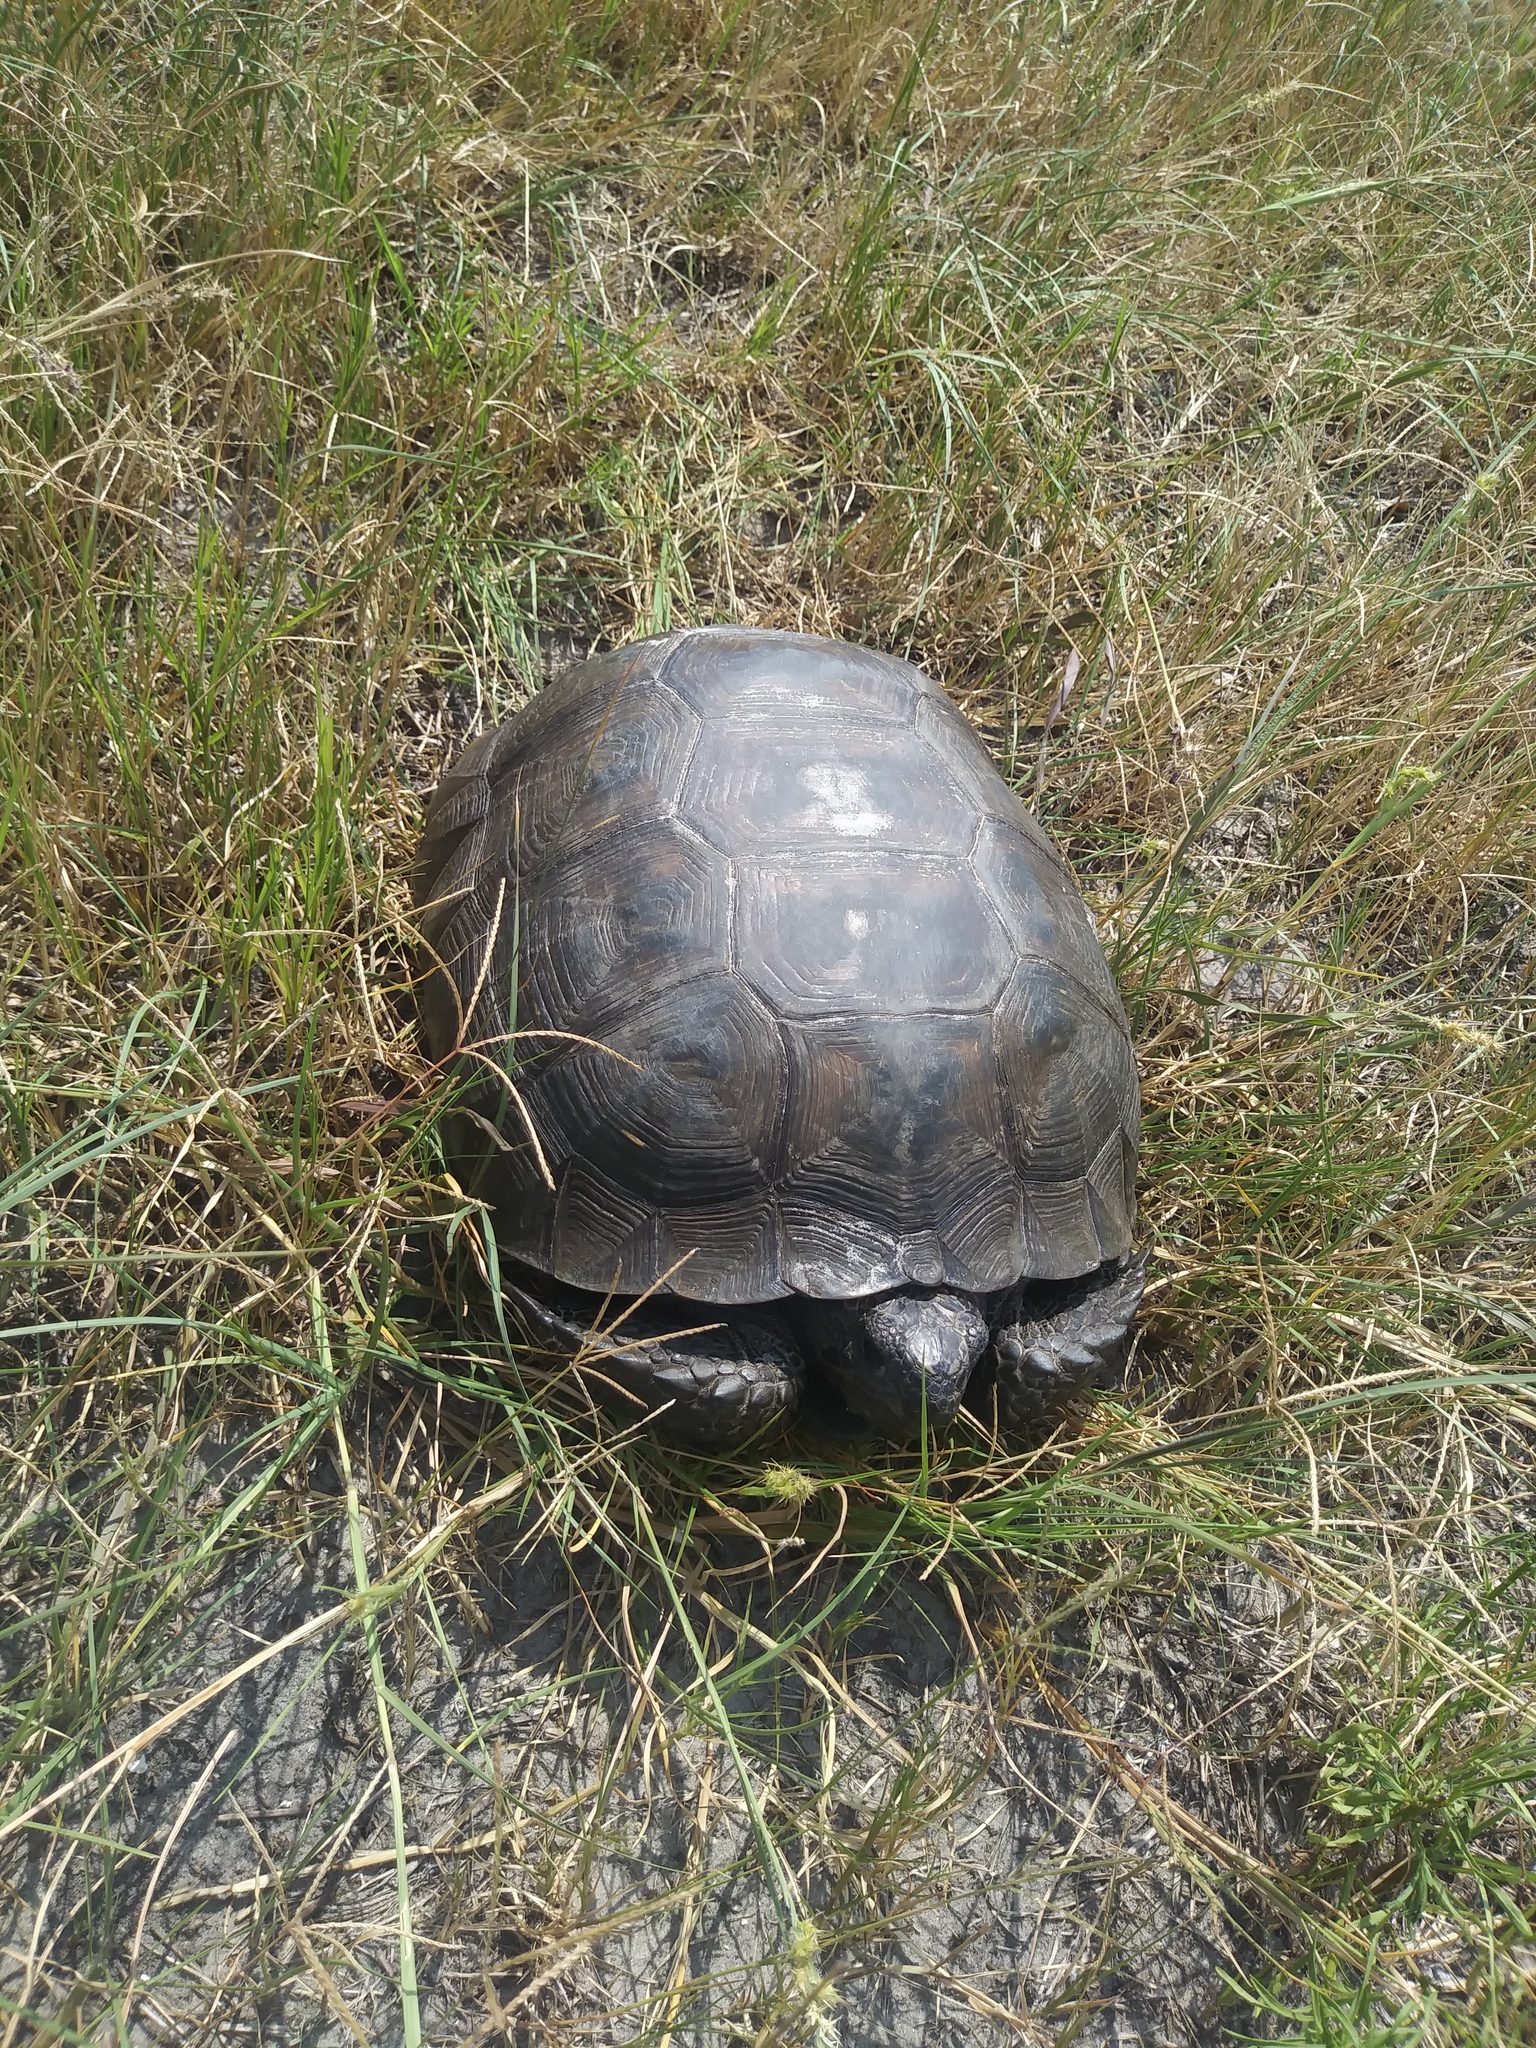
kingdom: Animalia
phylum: Chordata
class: Testudines
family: Testudinidae
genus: Gopherus
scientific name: Gopherus polyphemus
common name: Florida gopher tortoise
